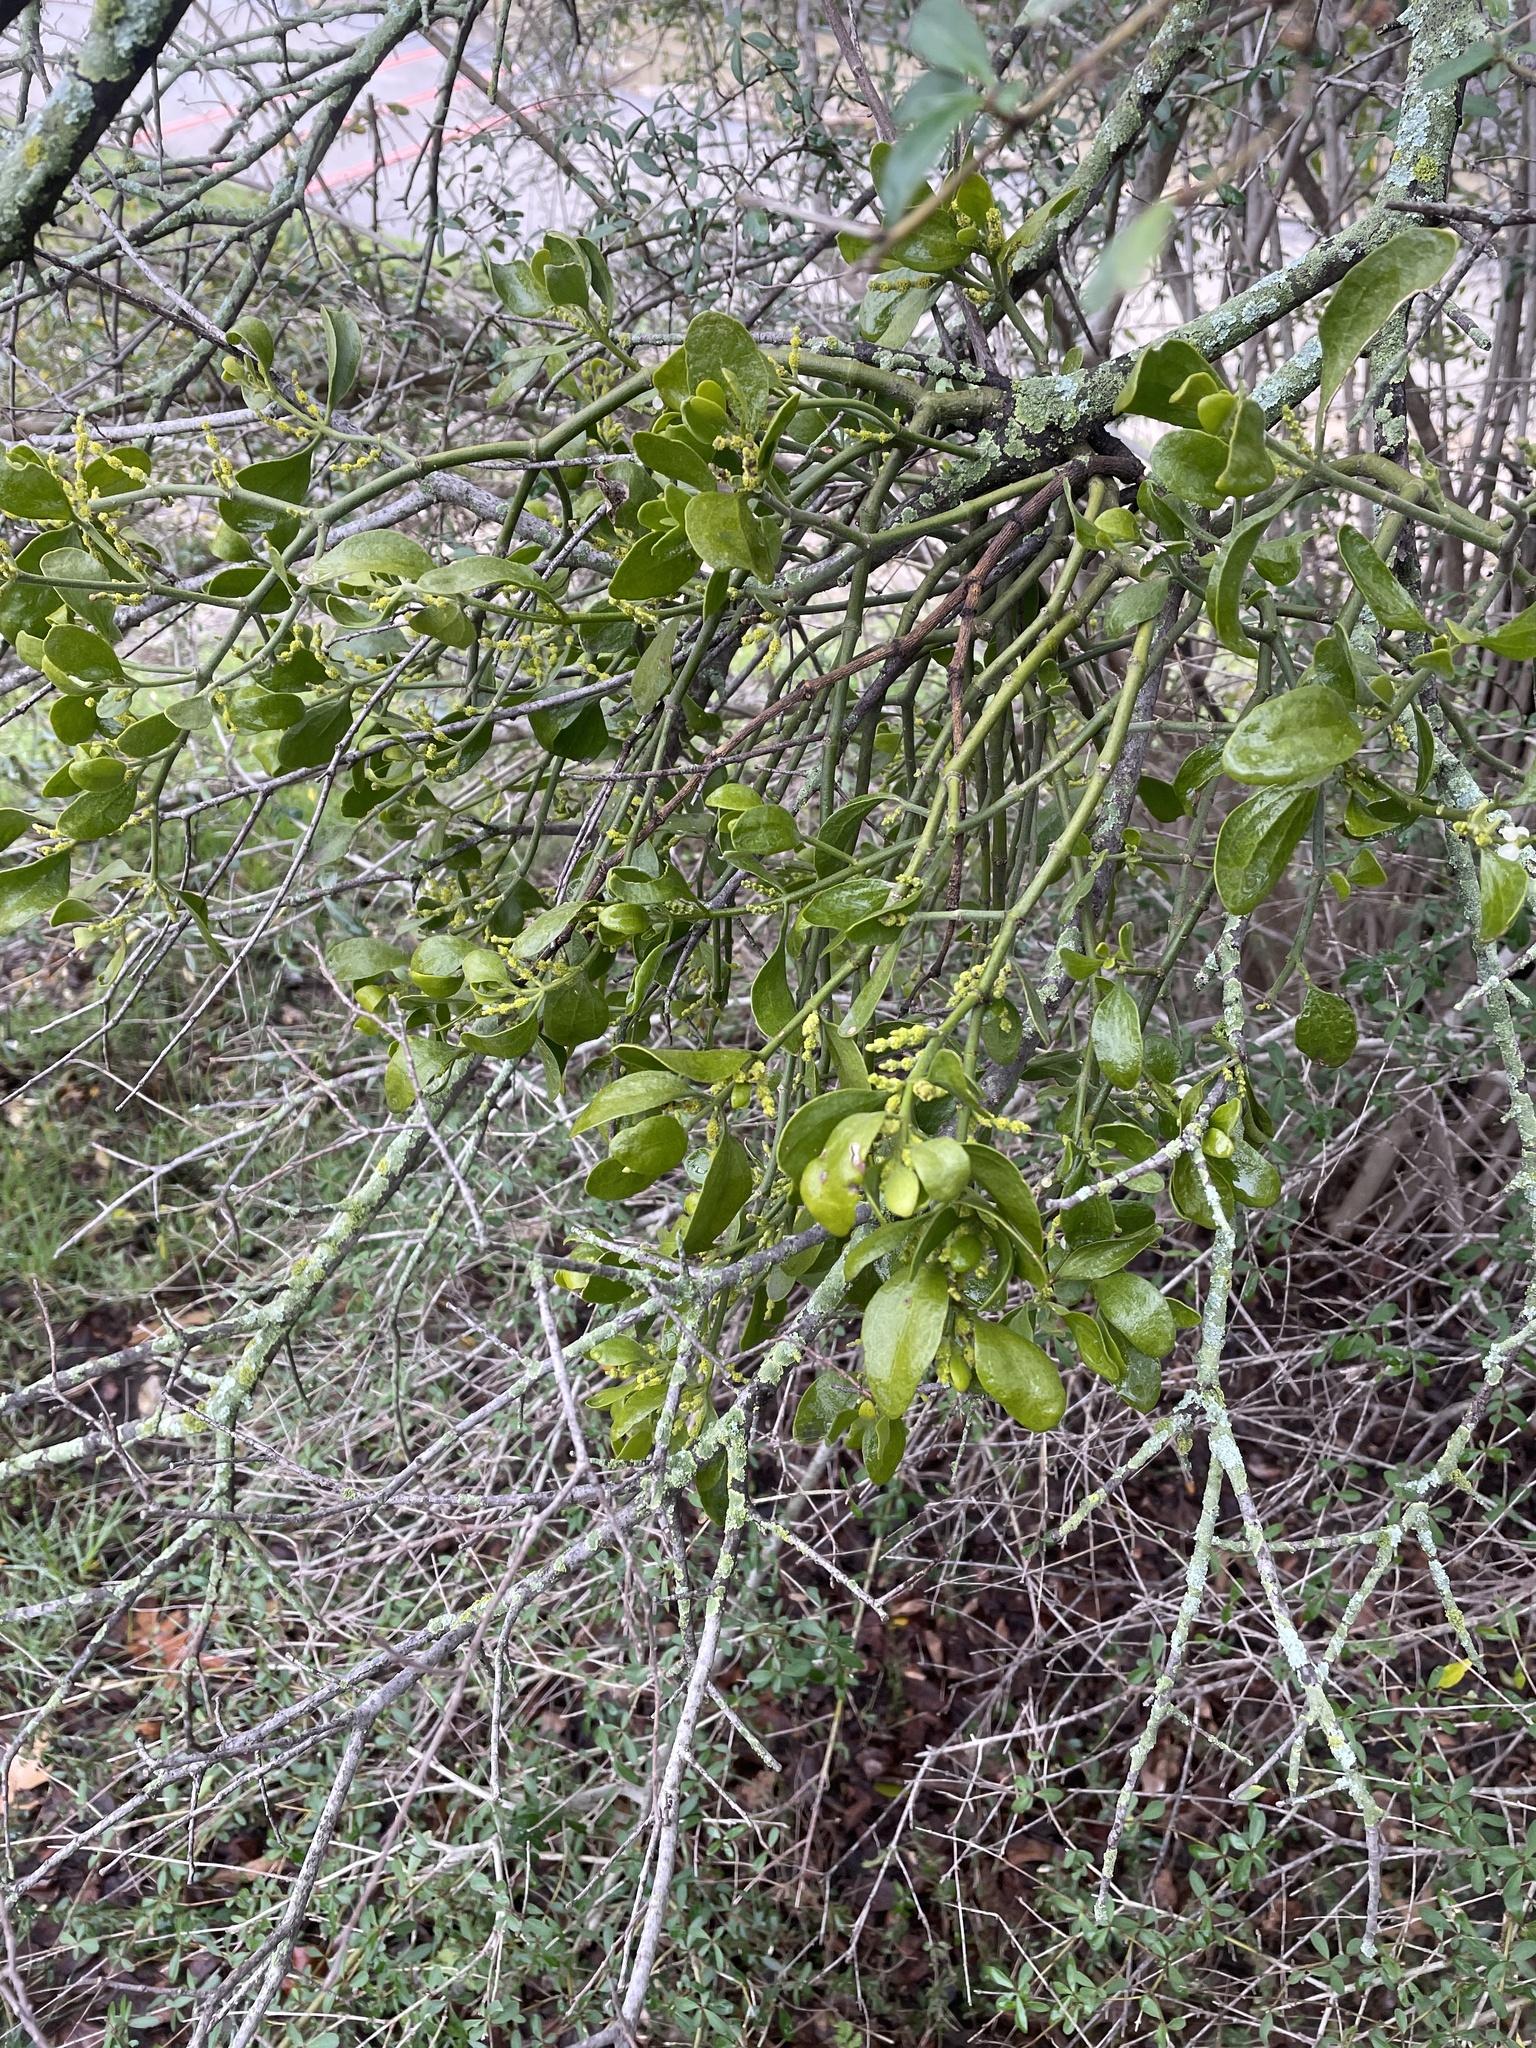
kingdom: Plantae
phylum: Tracheophyta
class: Magnoliopsida
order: Santalales
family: Viscaceae
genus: Phoradendron
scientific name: Phoradendron leucarpum
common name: Pacific mistletoe
